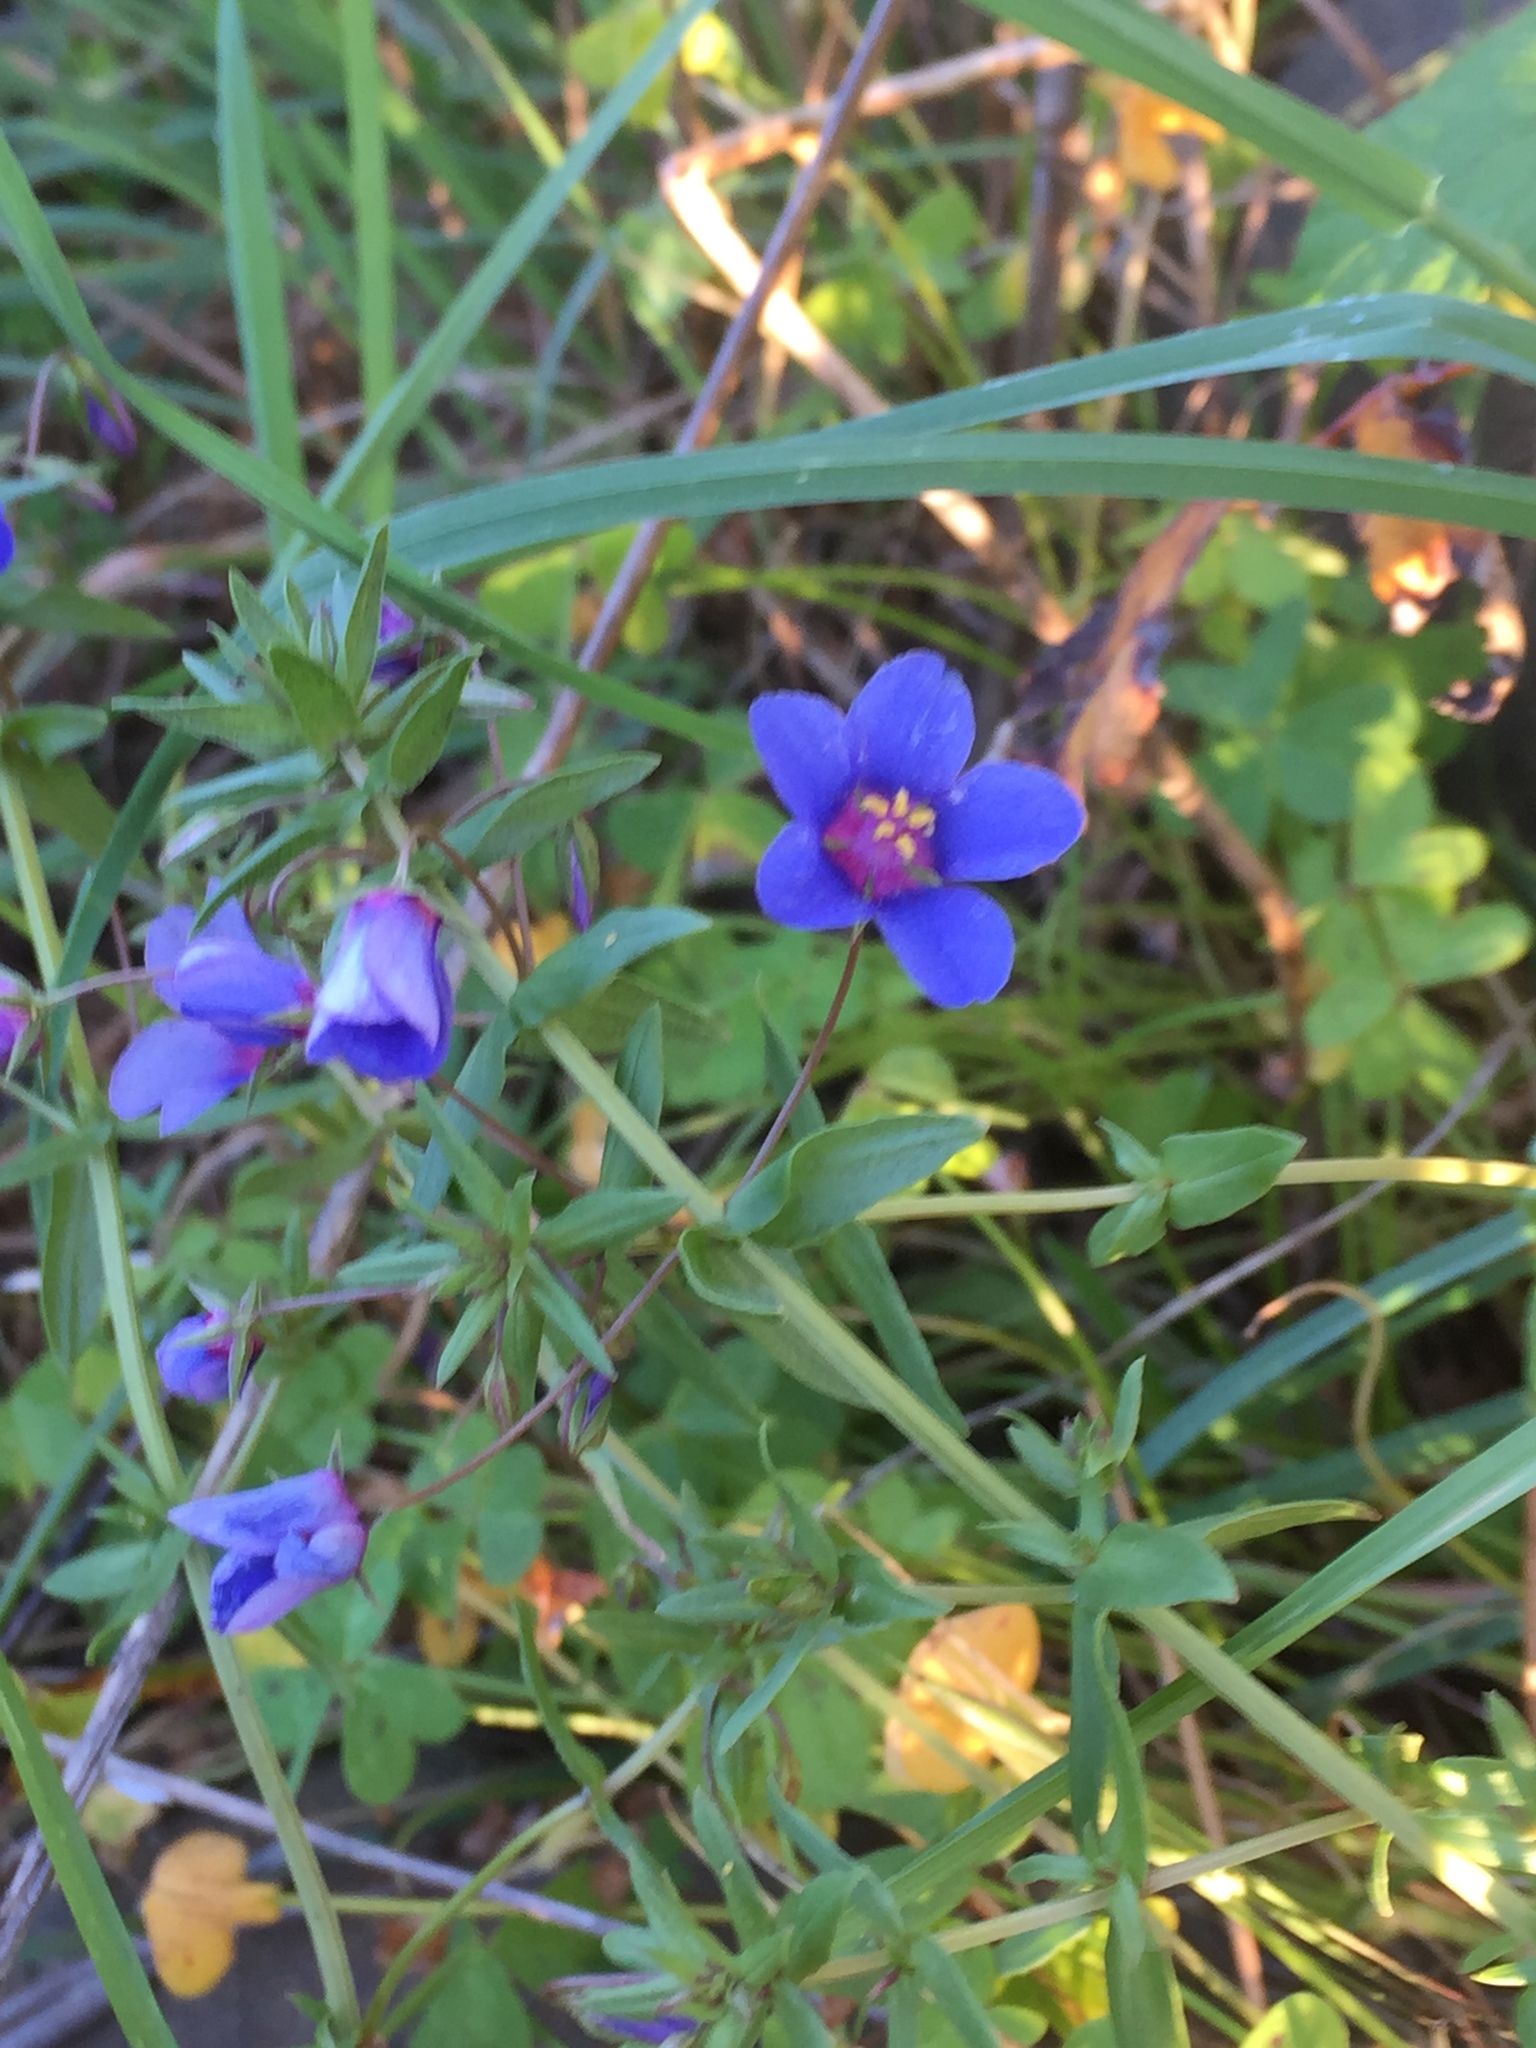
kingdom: Plantae
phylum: Tracheophyta
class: Magnoliopsida
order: Ericales
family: Primulaceae
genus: Lysimachia
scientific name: Lysimachia monelli
